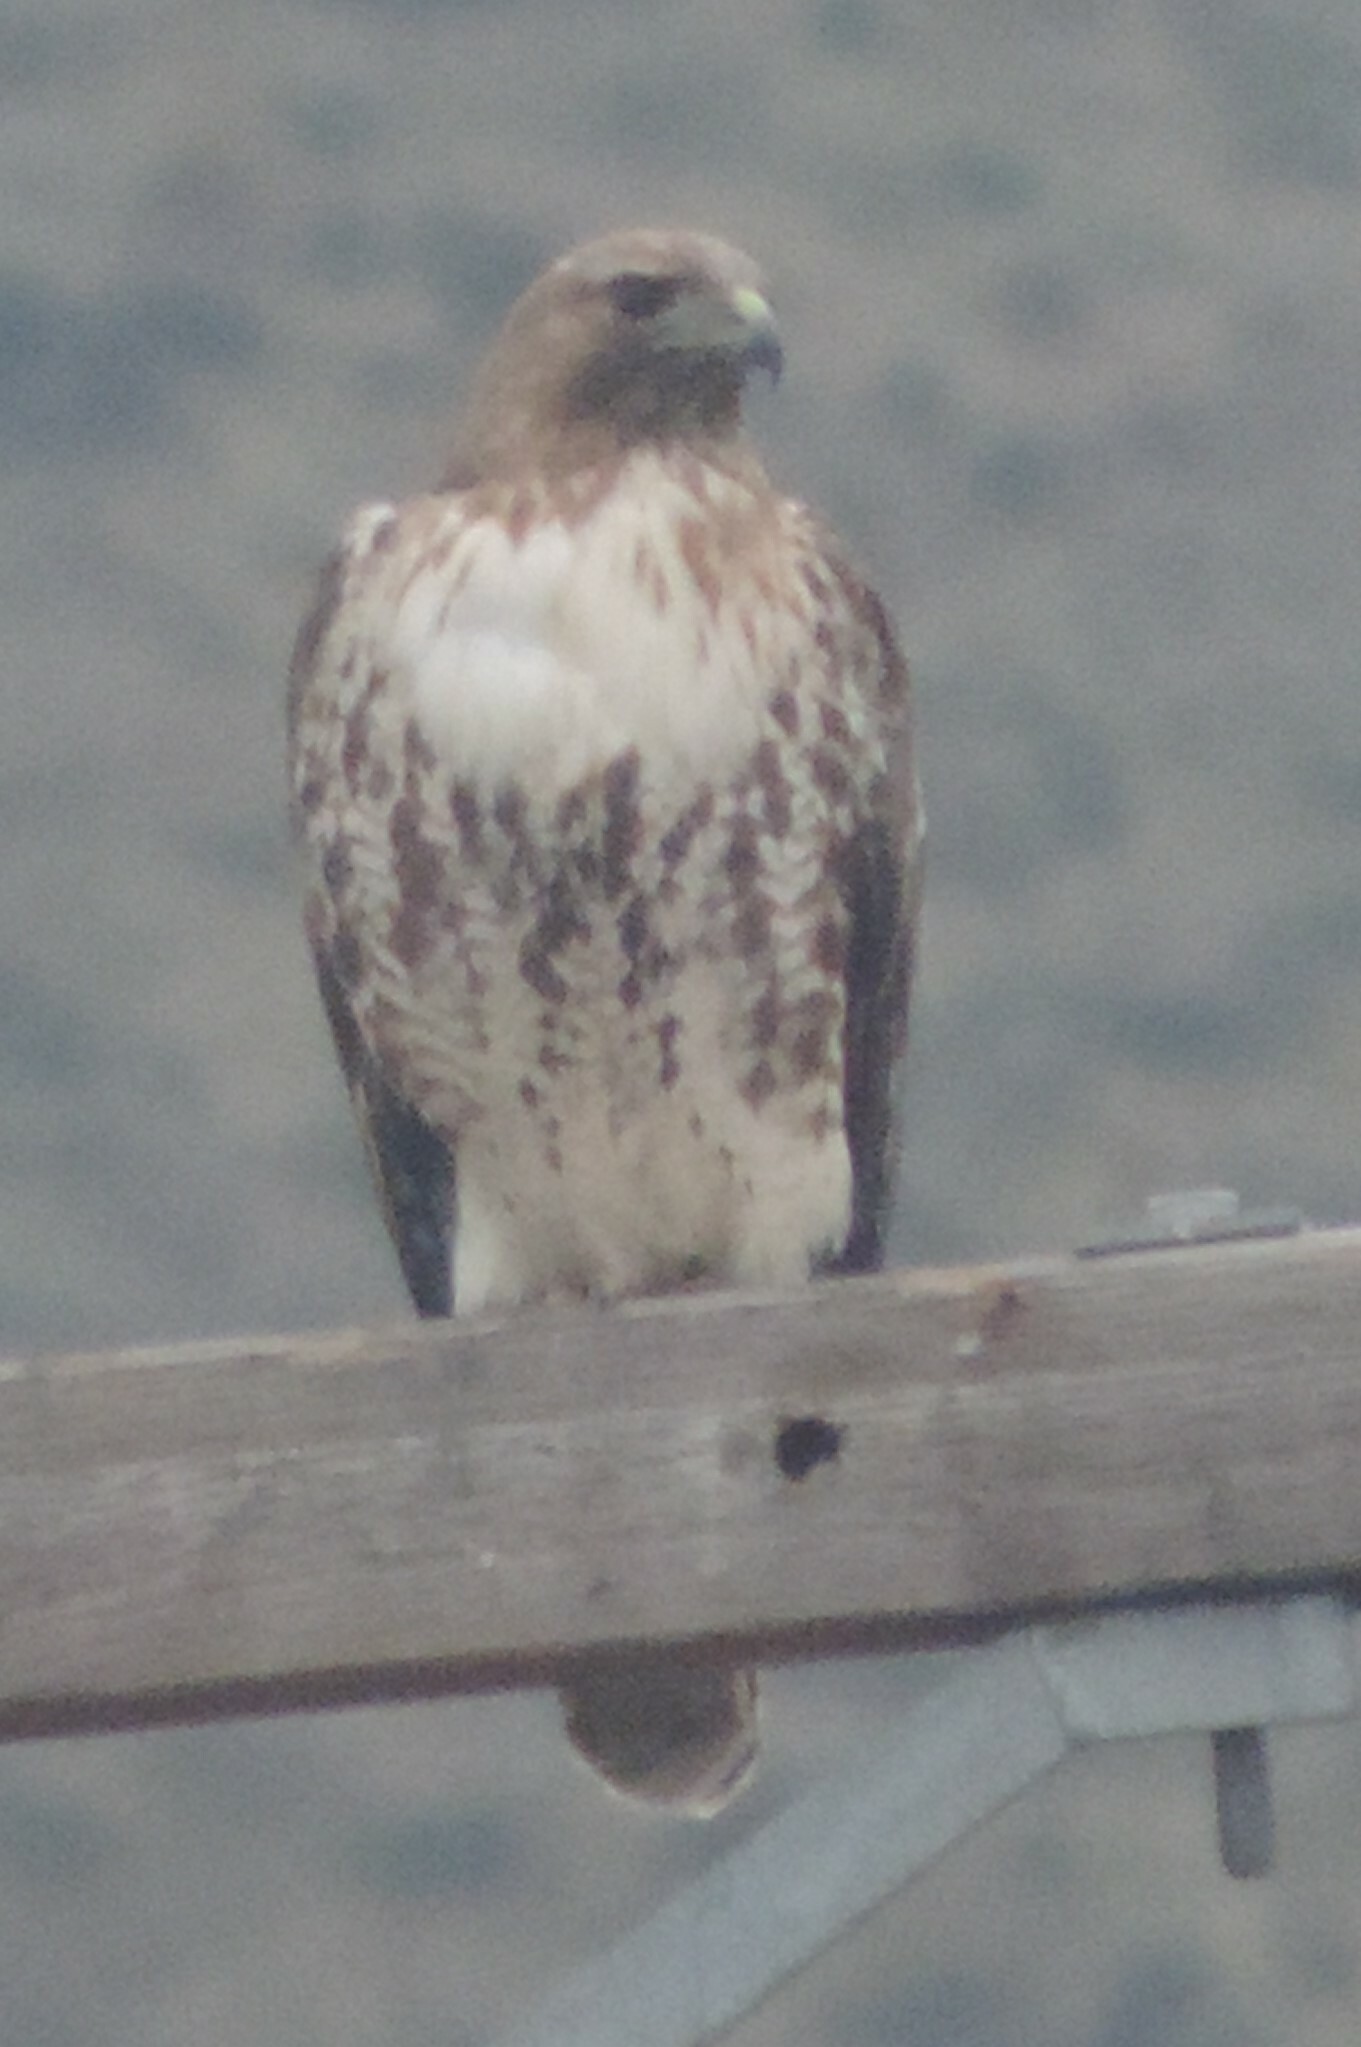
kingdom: Animalia
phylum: Chordata
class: Aves
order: Accipitriformes
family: Accipitridae
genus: Buteo
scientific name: Buteo jamaicensis
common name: Red-tailed hawk
